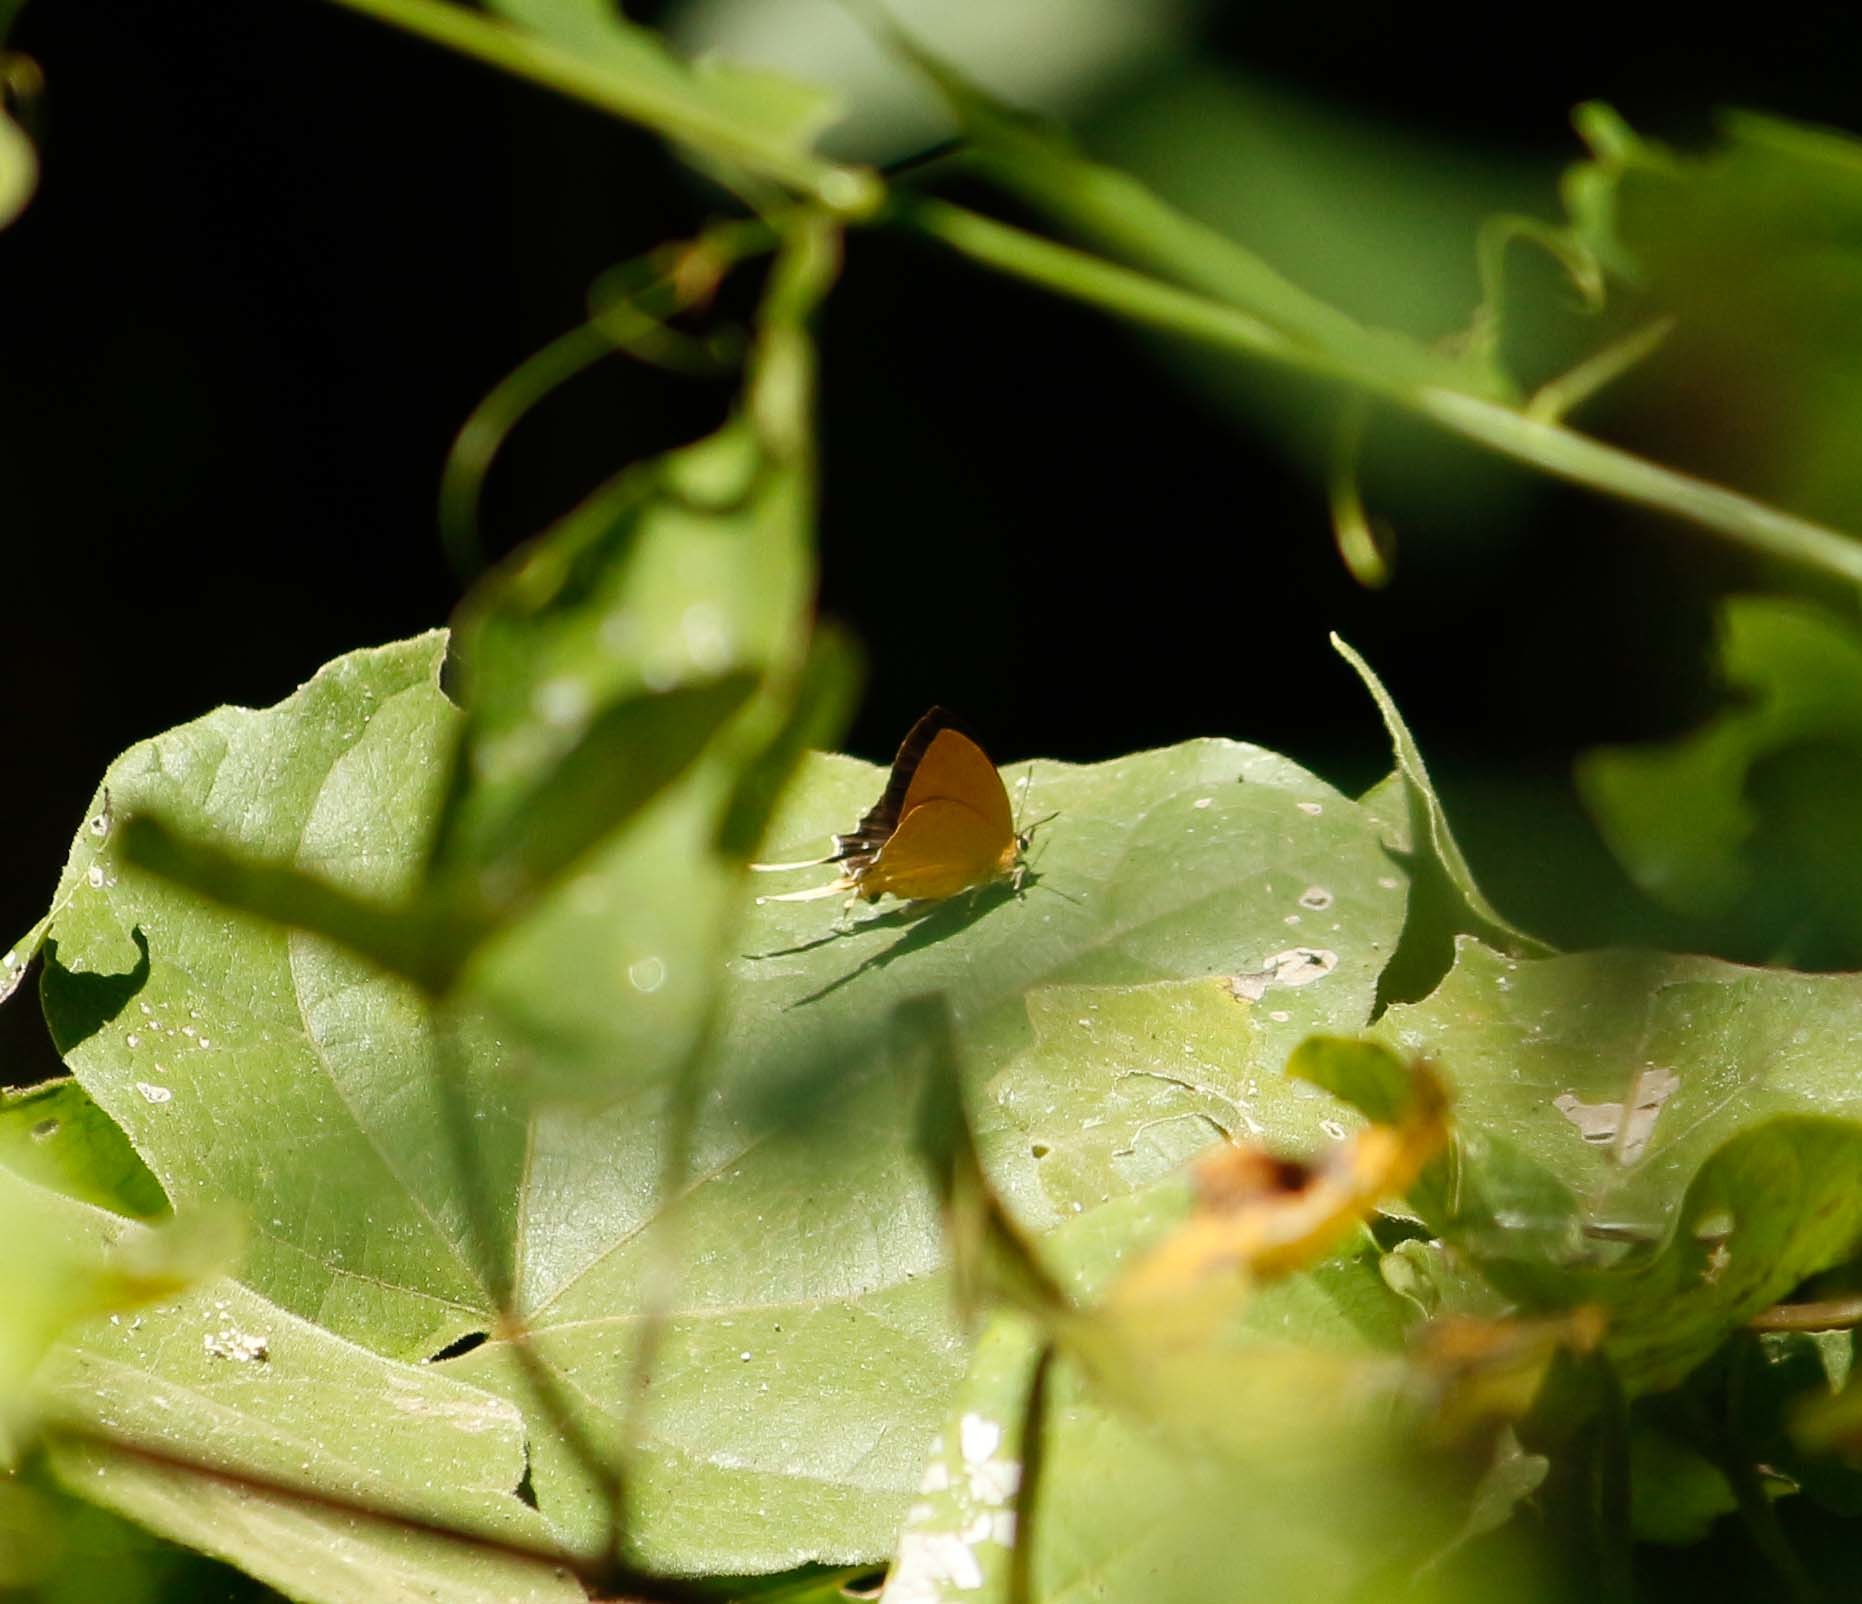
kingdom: Animalia
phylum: Arthropoda
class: Insecta
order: Lepidoptera
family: Lycaenidae
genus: Ticherra
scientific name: Ticherra acte
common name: Blue imperial
